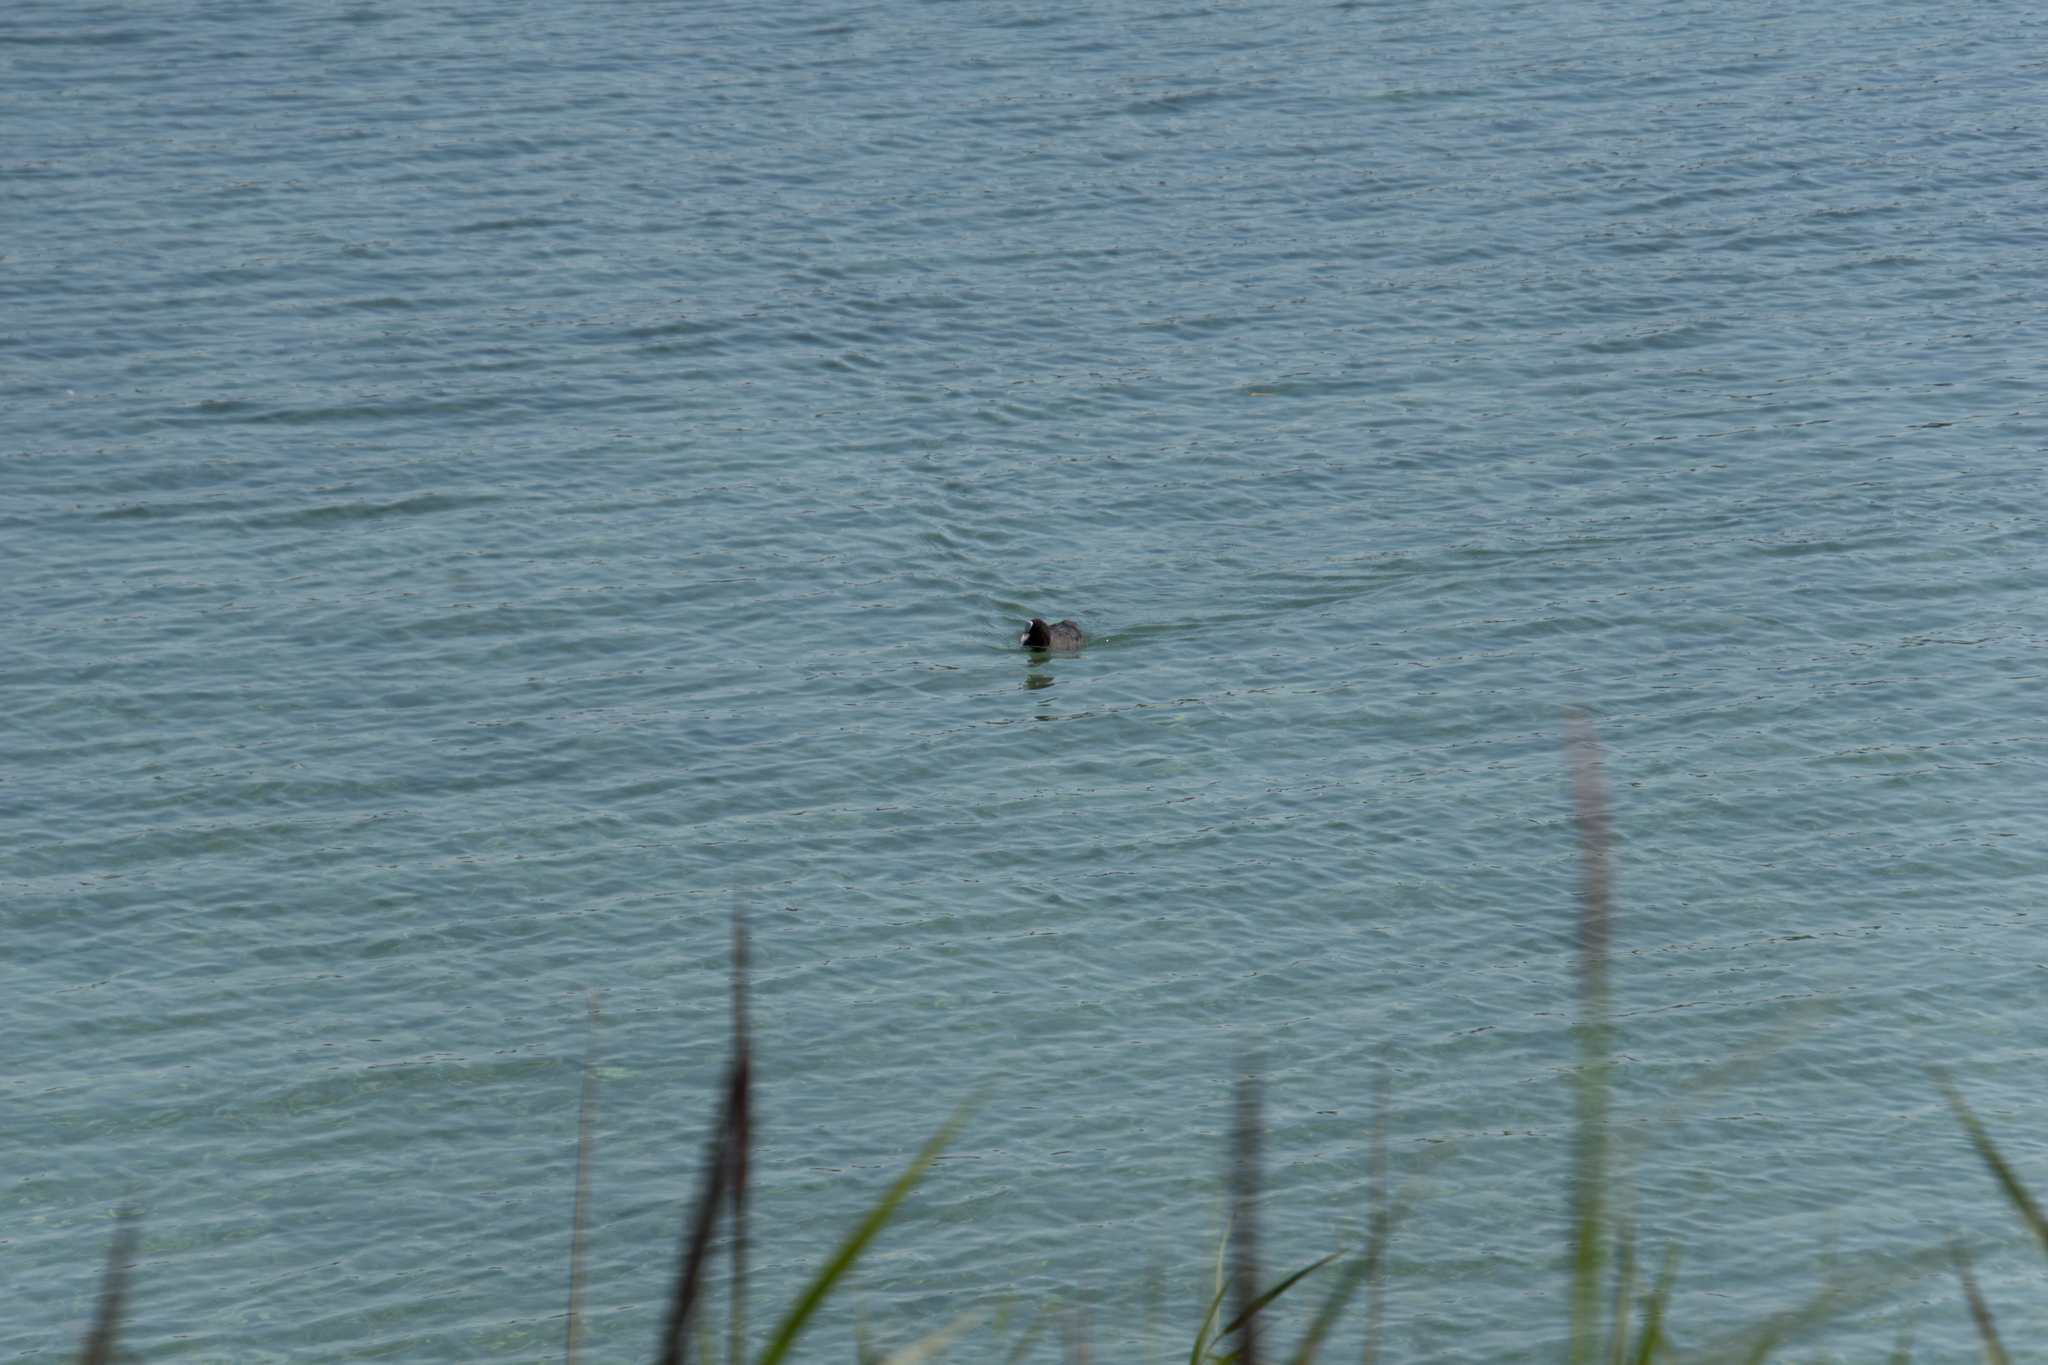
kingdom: Animalia
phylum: Chordata
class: Aves
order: Gruiformes
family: Rallidae
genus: Fulica
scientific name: Fulica atra
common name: Eurasian coot
